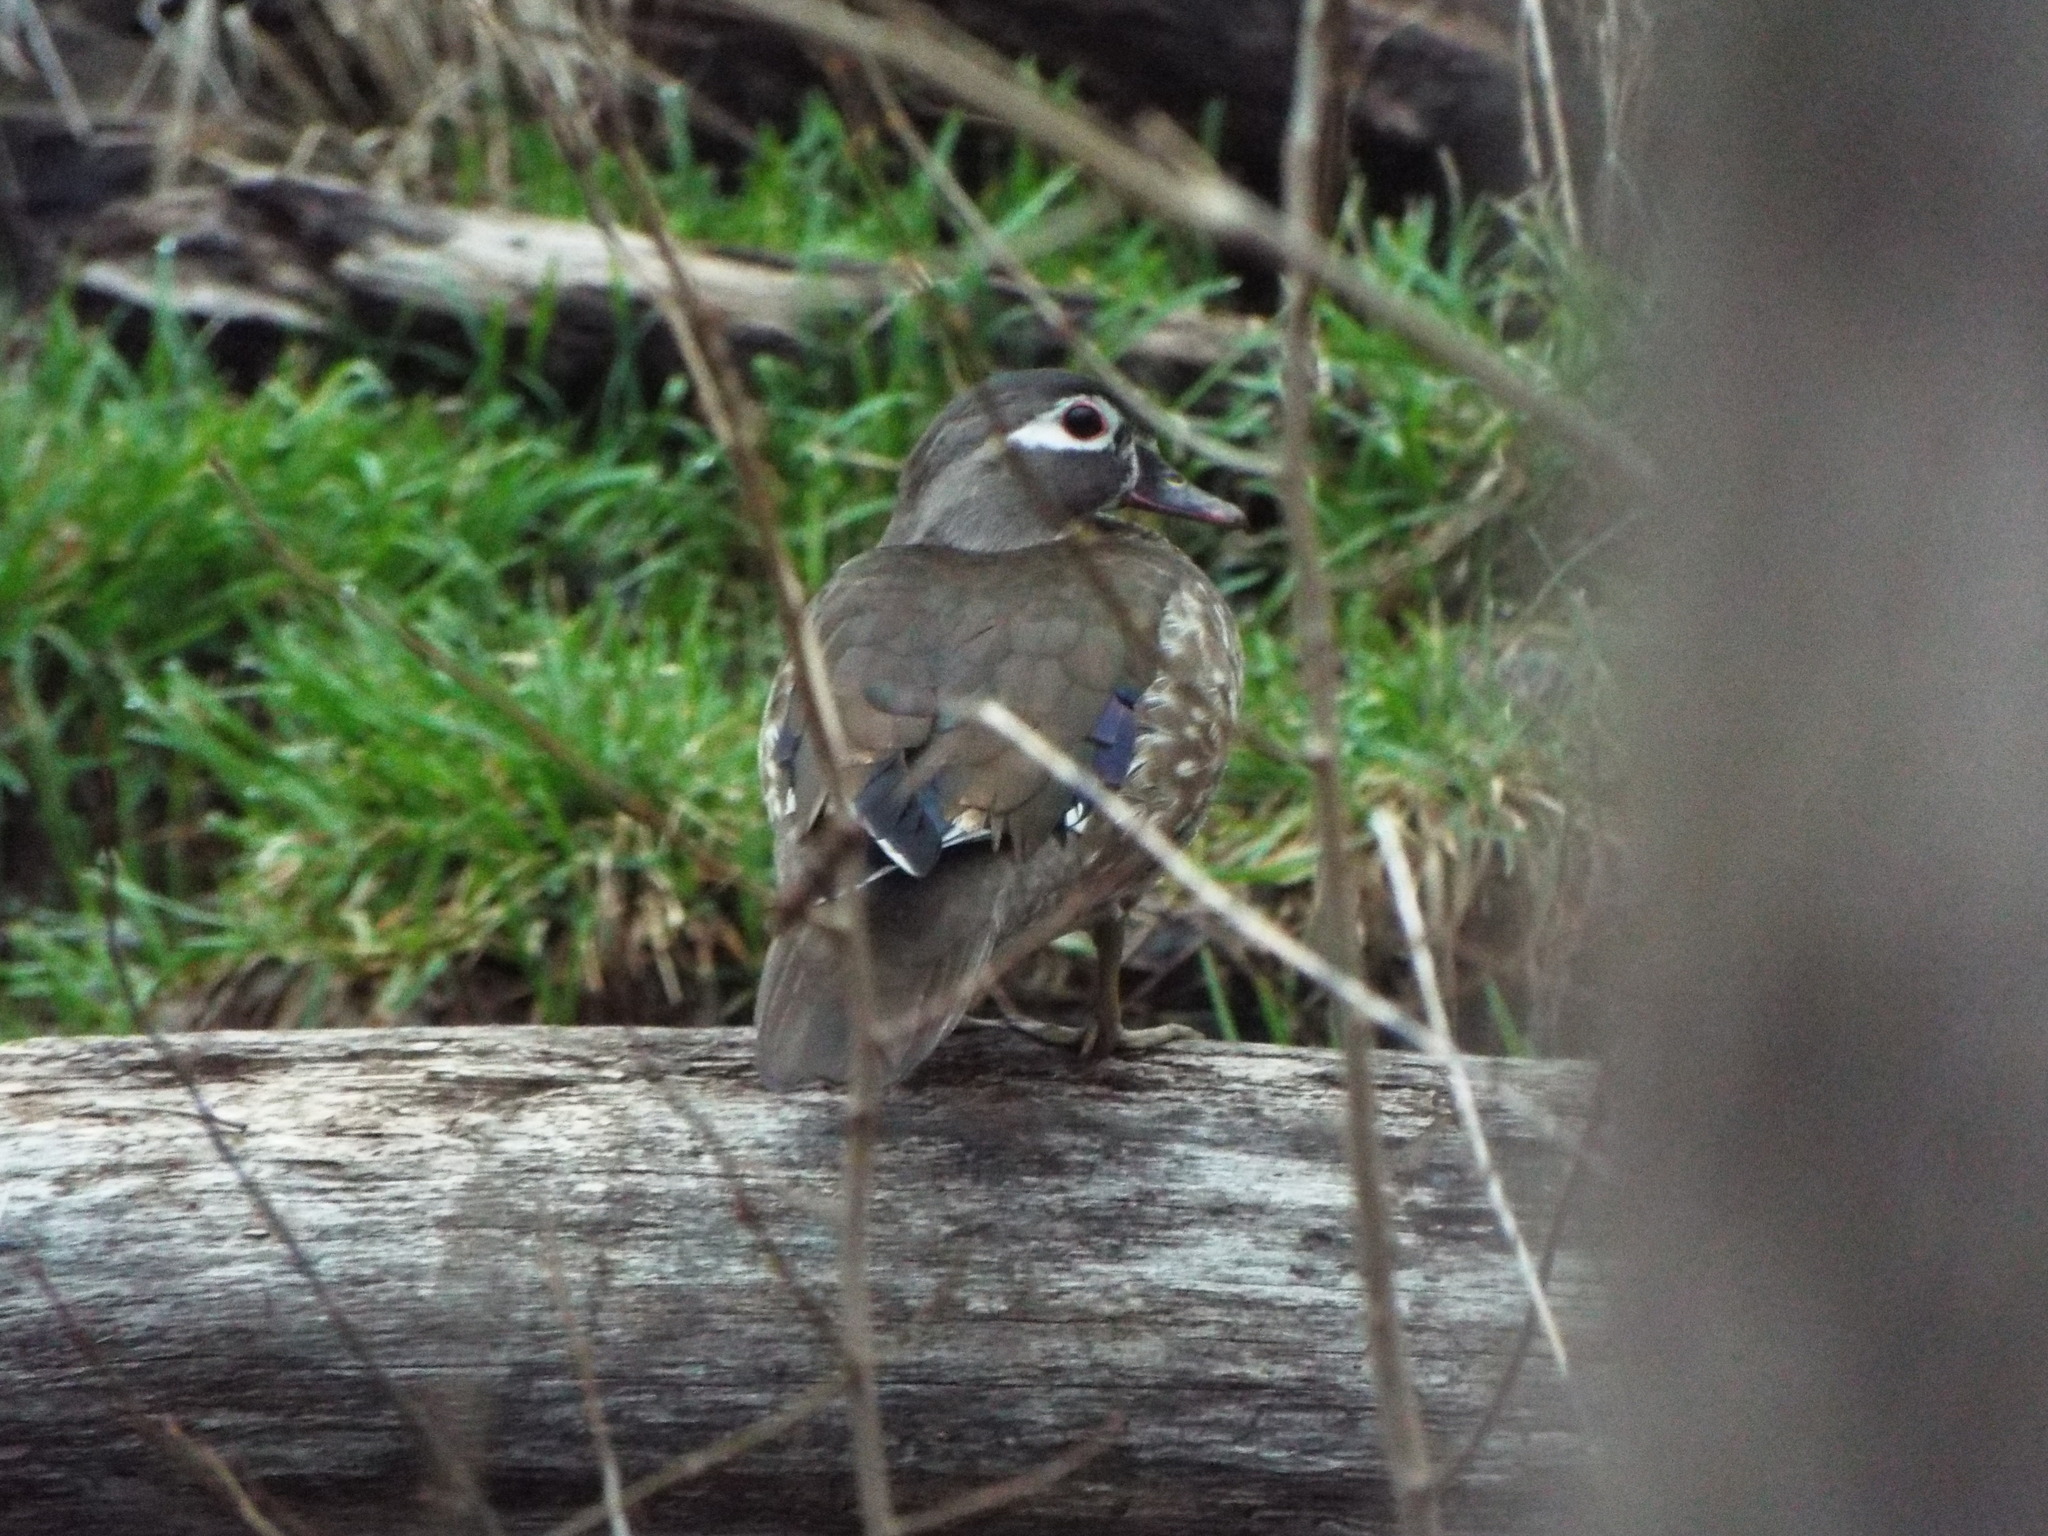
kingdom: Animalia
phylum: Chordata
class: Aves
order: Anseriformes
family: Anatidae
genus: Aix
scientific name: Aix sponsa
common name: Wood duck
